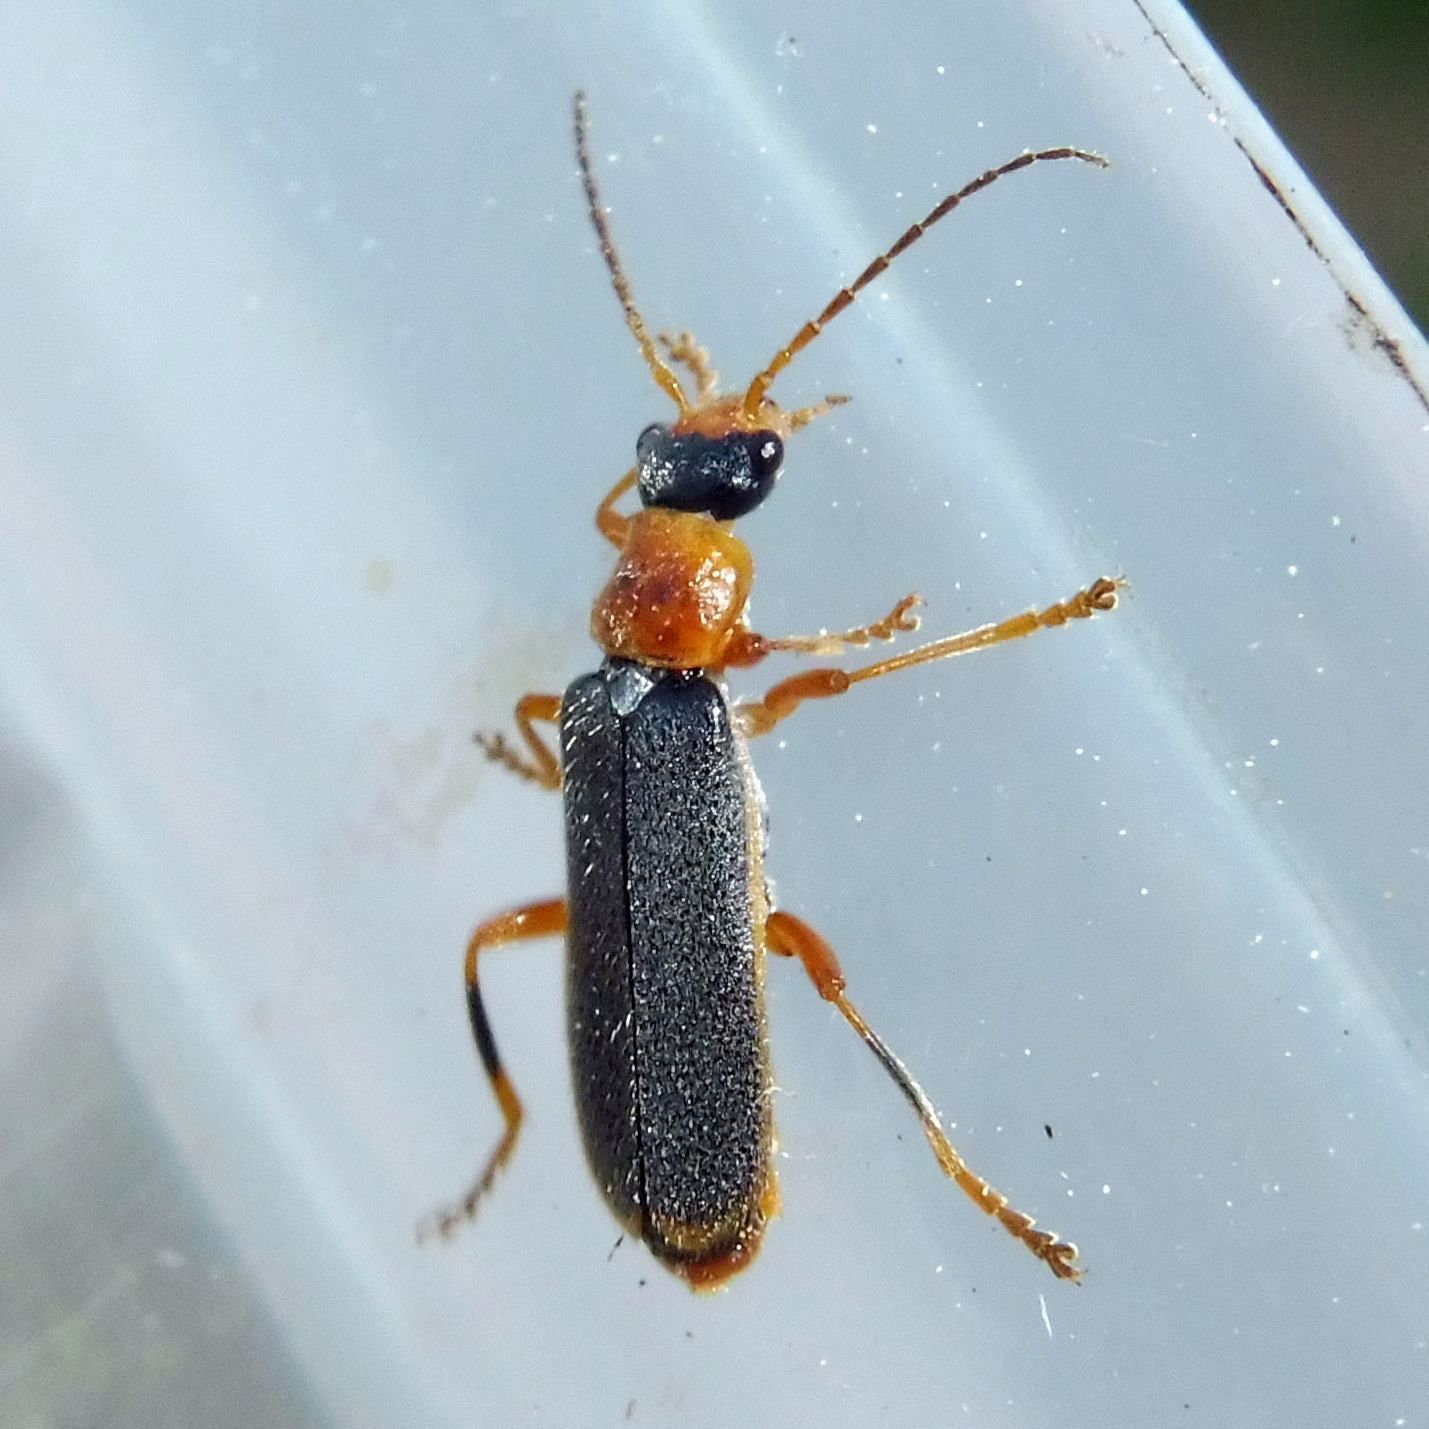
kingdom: Animalia
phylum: Arthropoda
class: Insecta
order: Coleoptera
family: Cantharidae
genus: Cantharis
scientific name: Cantharis lateralis
